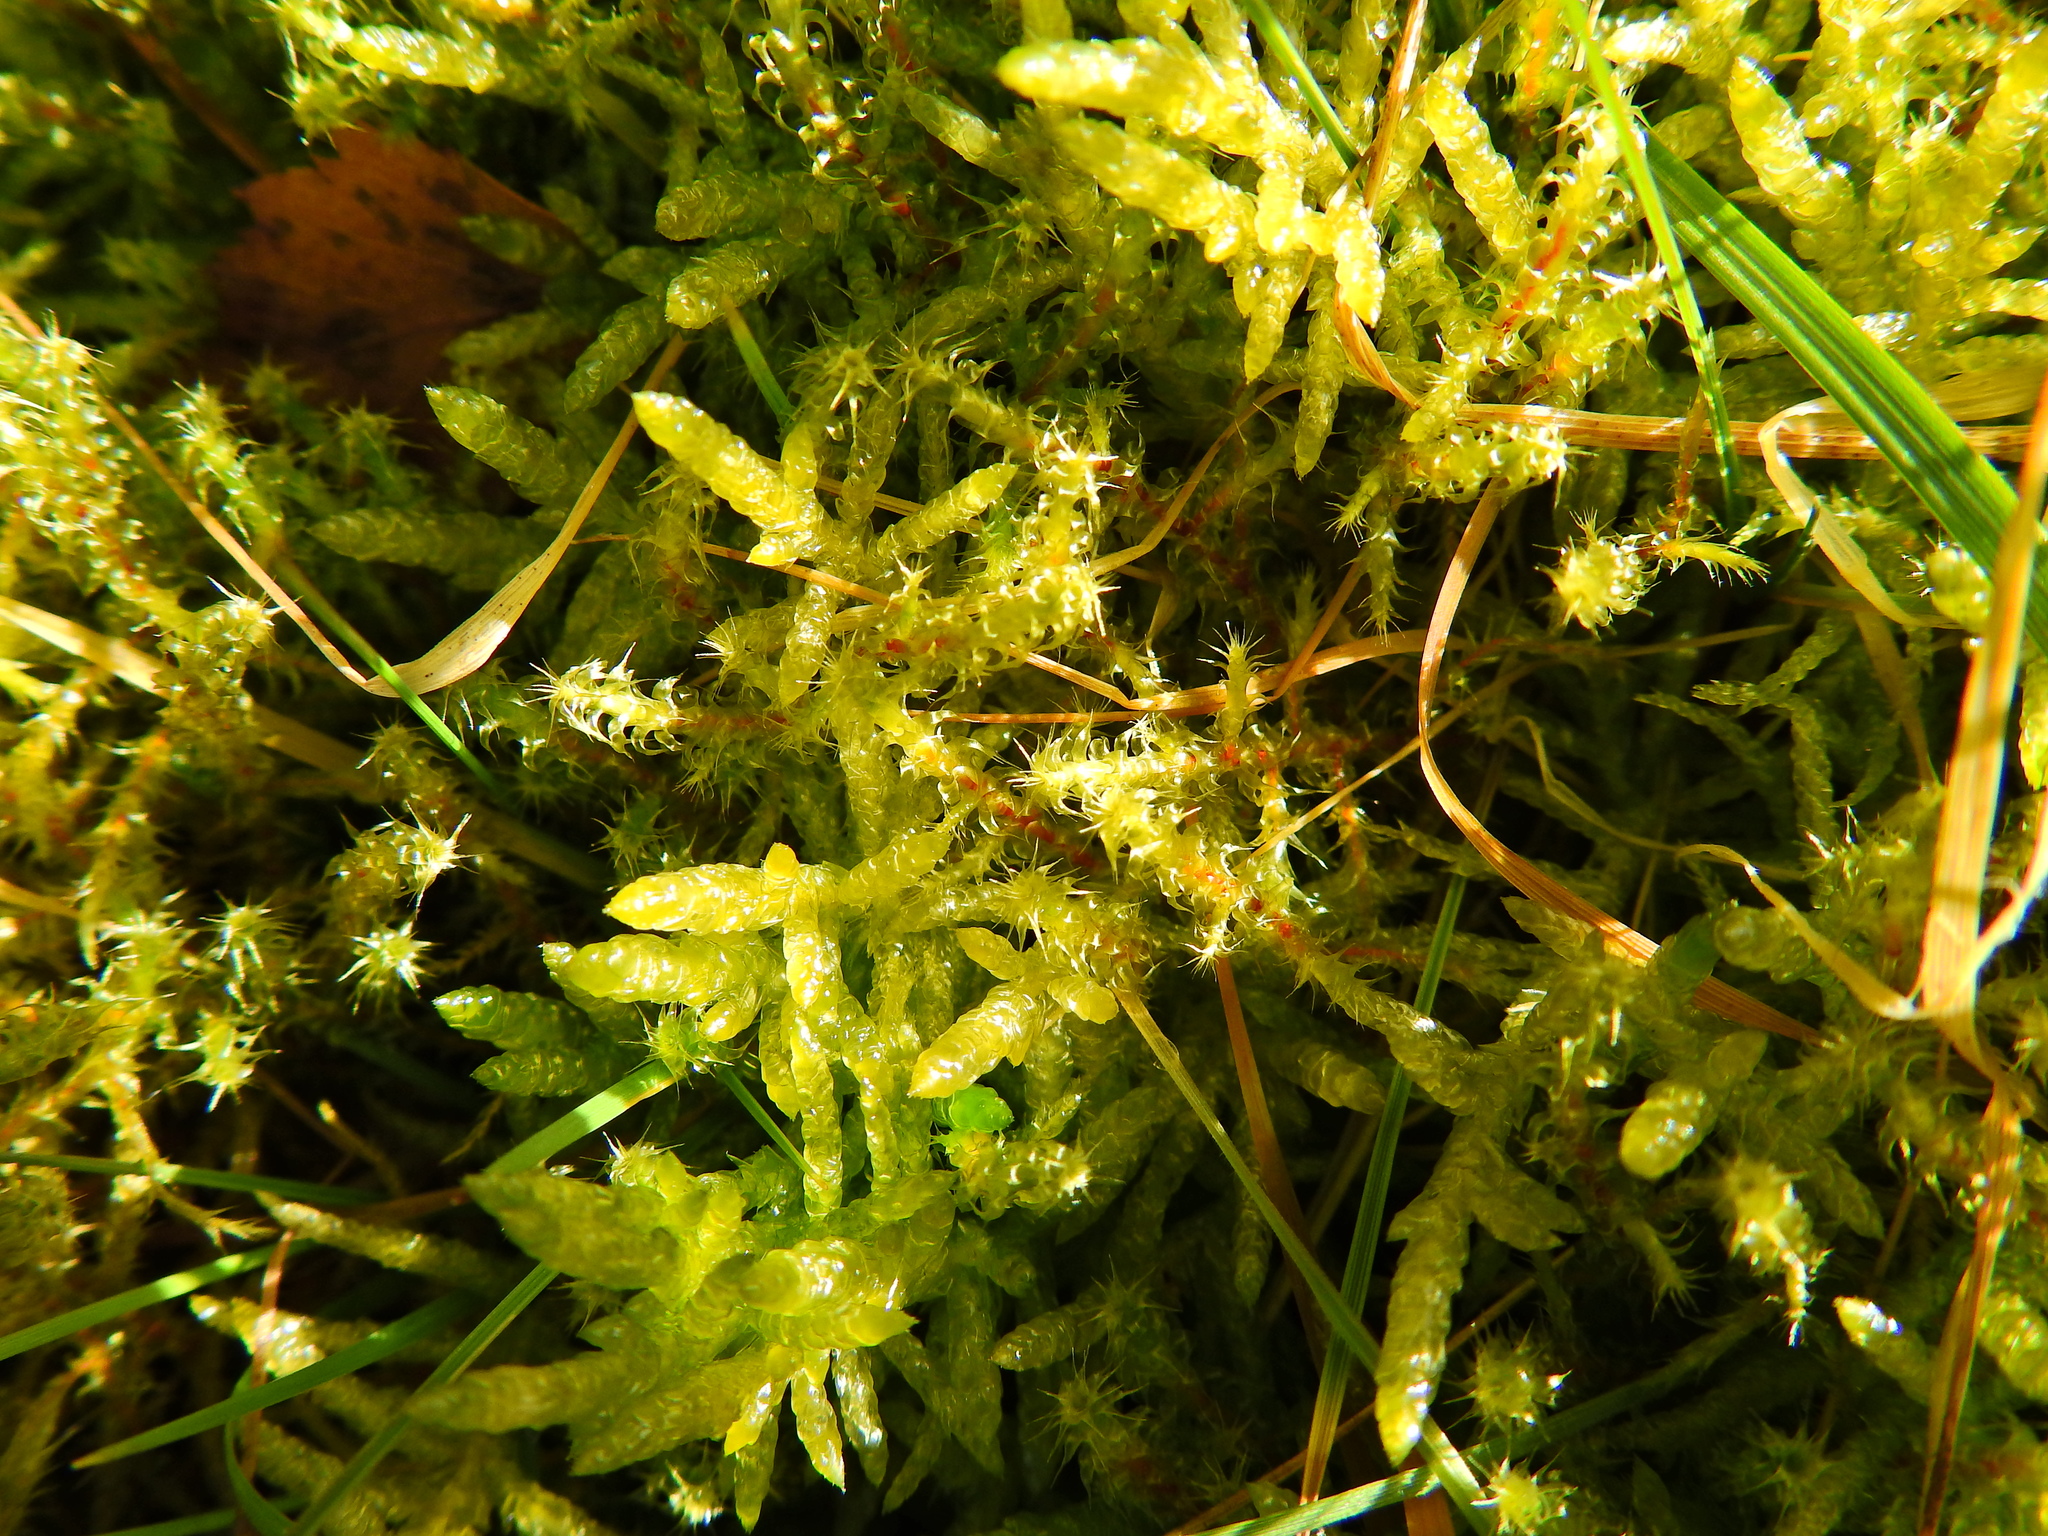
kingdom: Plantae
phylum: Bryophyta
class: Bryopsida
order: Hypnales
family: Brachytheciaceae
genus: Pseudoscleropodium
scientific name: Pseudoscleropodium purum
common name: Neat feather-moss
